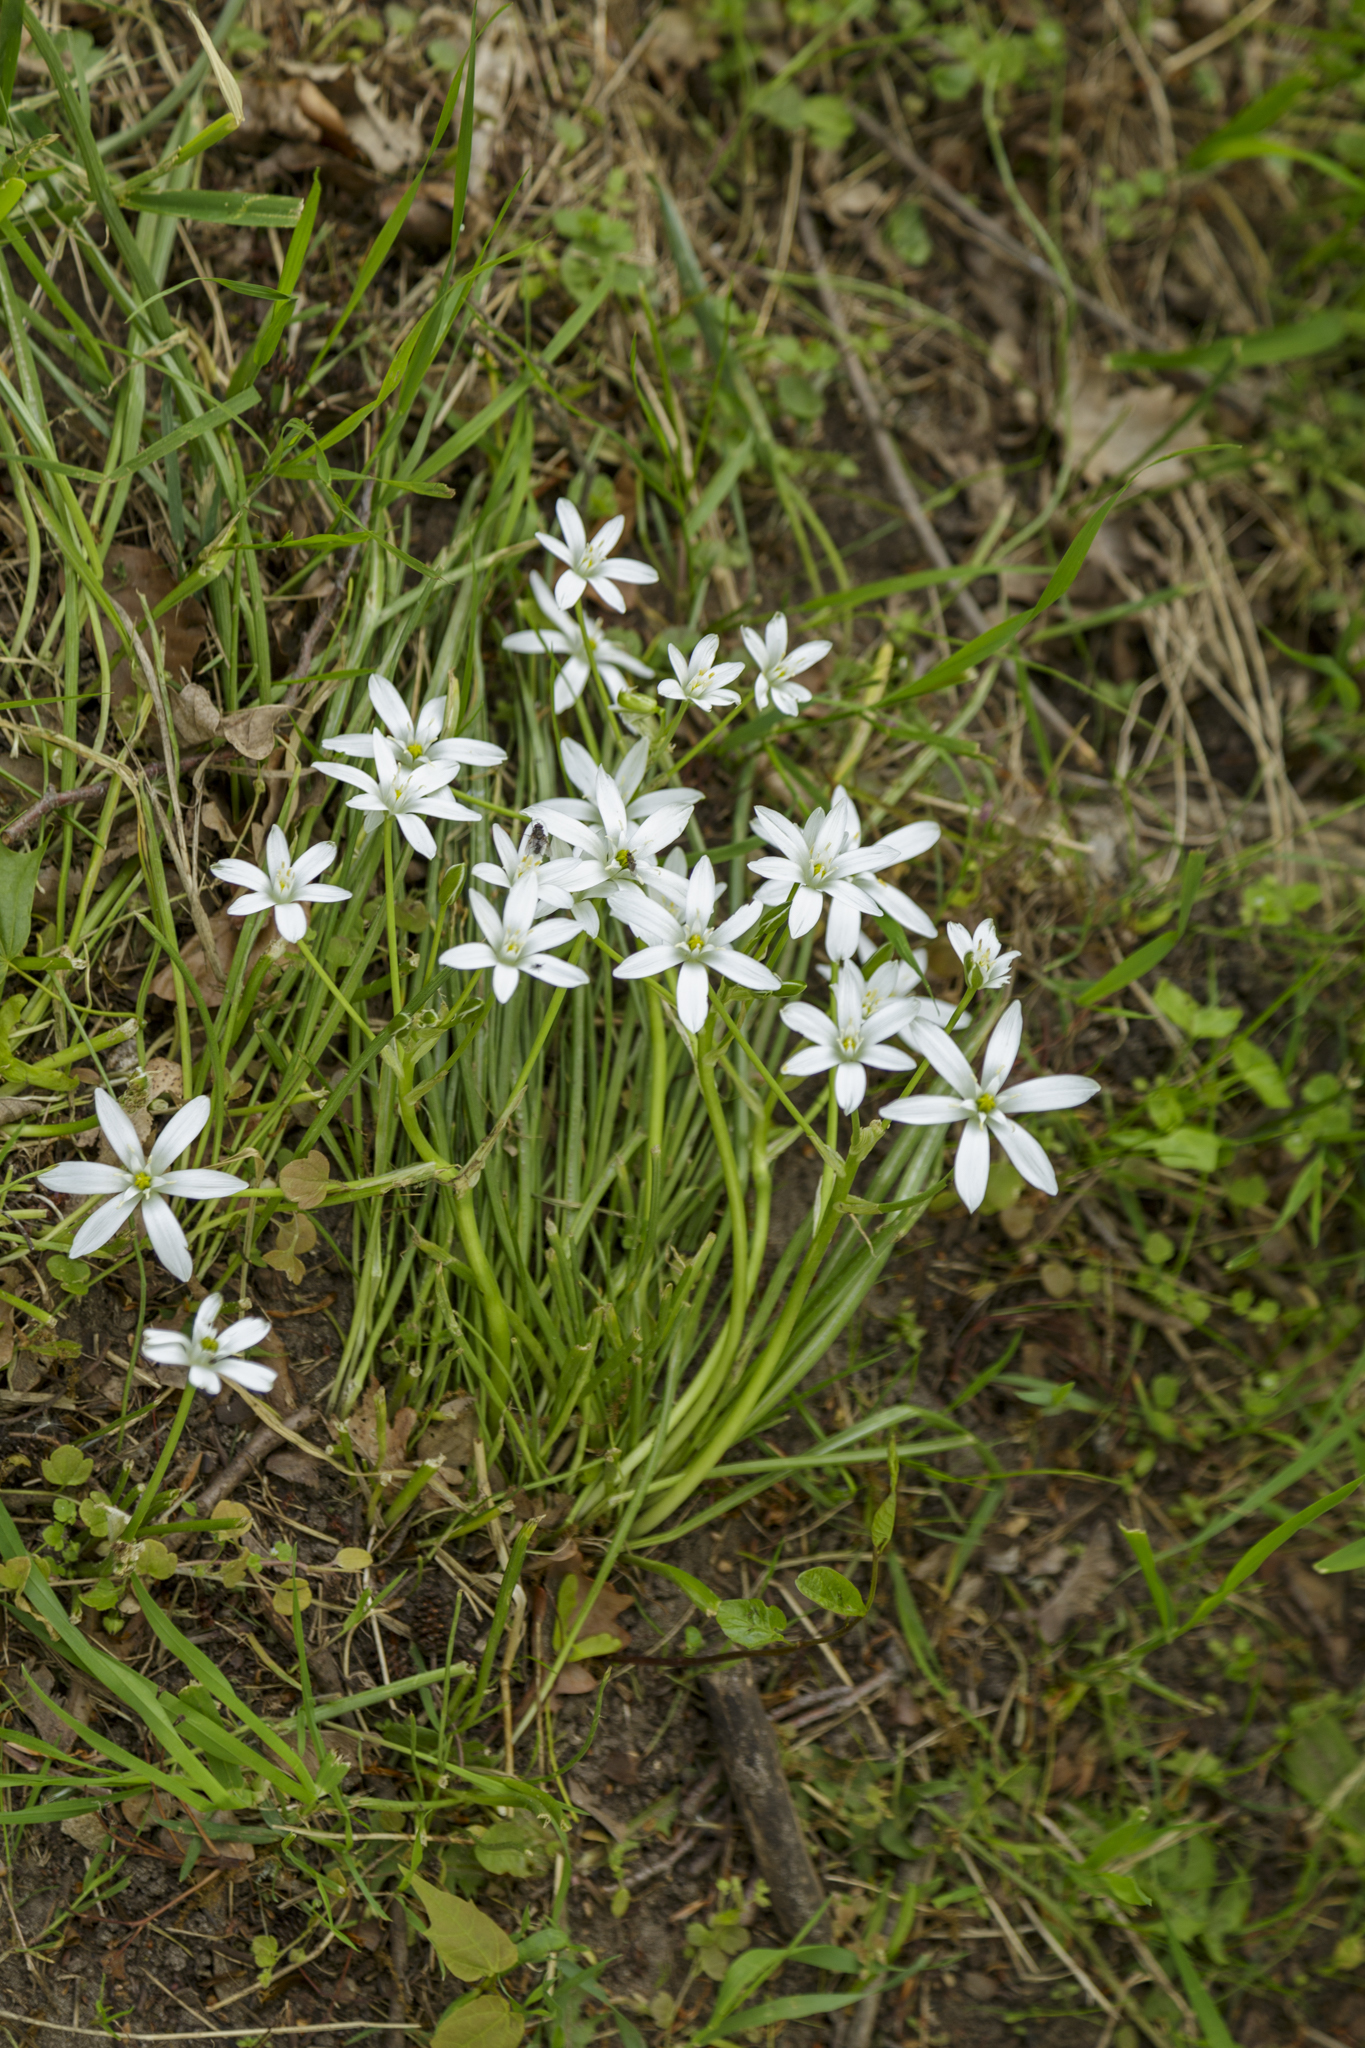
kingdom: Plantae
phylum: Tracheophyta
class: Liliopsida
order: Asparagales
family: Asparagaceae
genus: Ornithogalum
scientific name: Ornithogalum umbellatum
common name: Garden star-of-bethlehem
